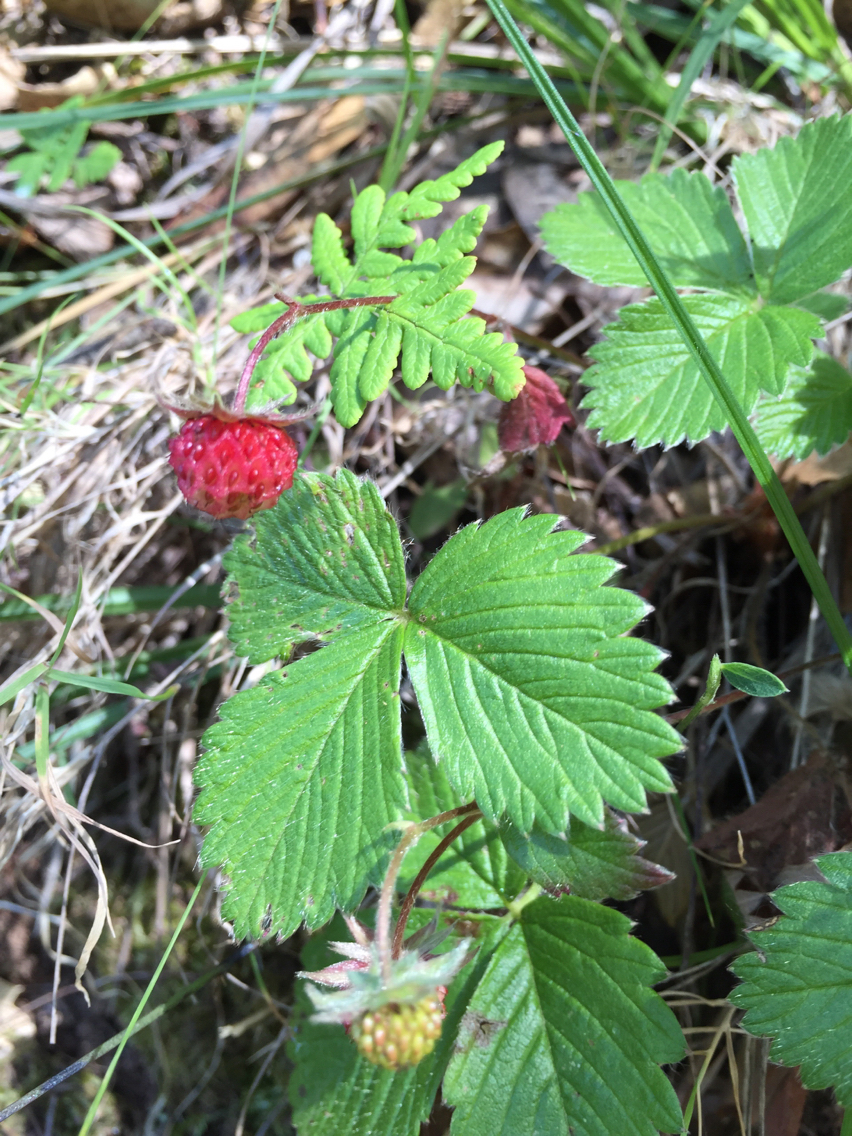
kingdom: Plantae
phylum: Tracheophyta
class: Magnoliopsida
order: Rosales
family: Rosaceae
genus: Fragaria
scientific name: Fragaria vesca
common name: Wild strawberry
